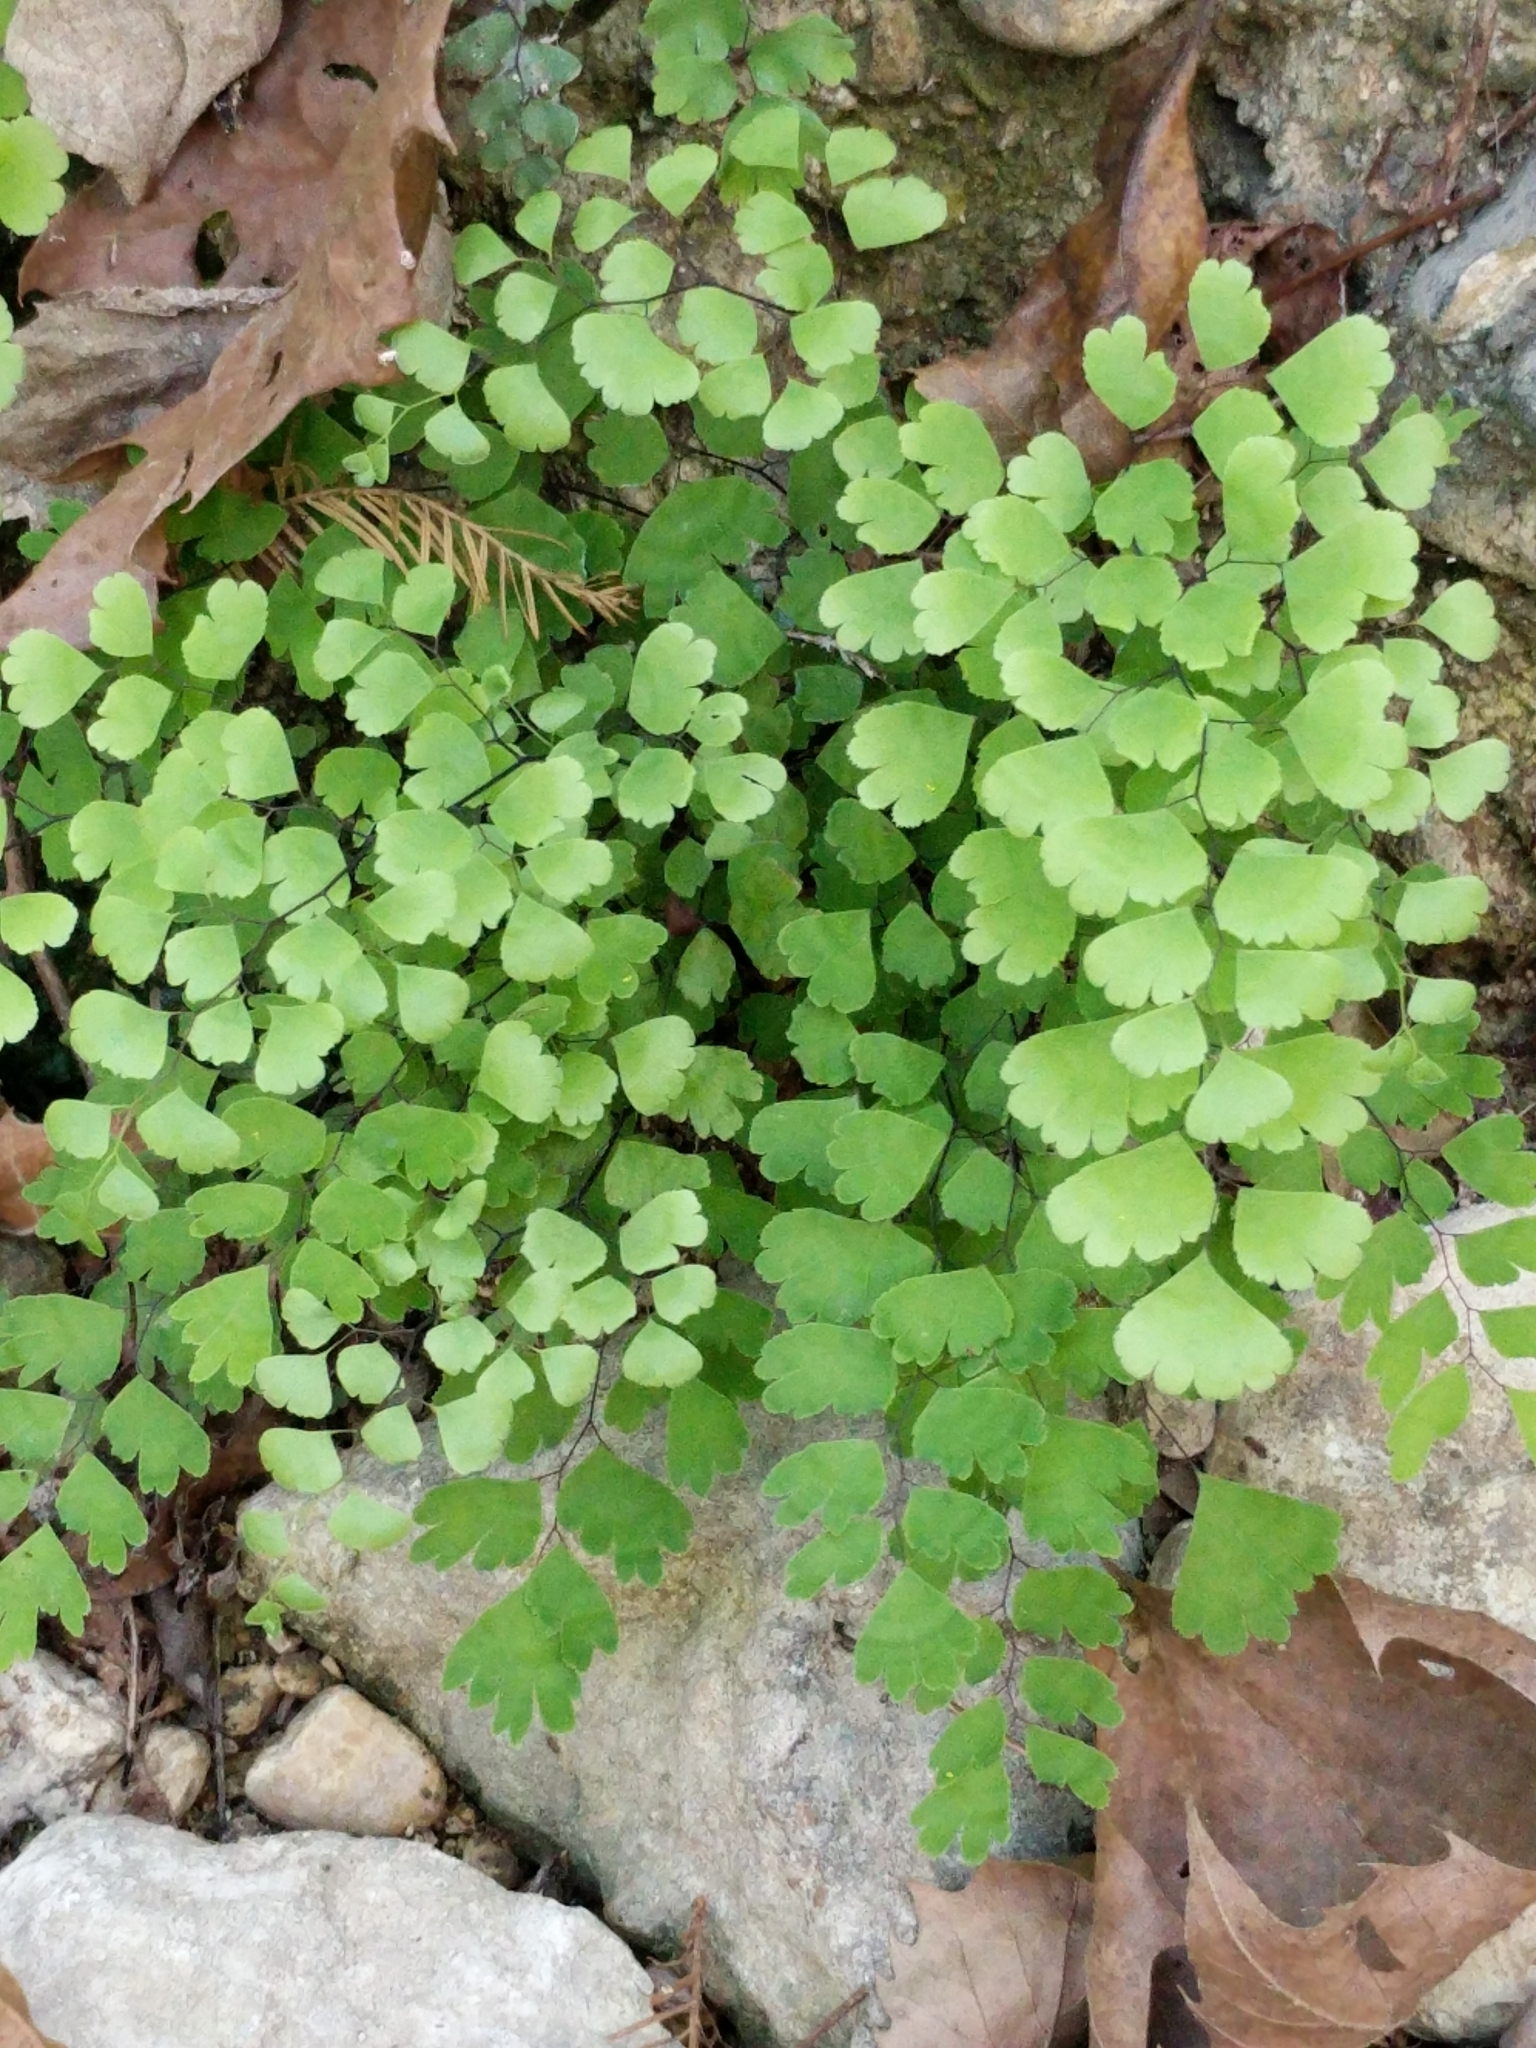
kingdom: Plantae
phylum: Tracheophyta
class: Polypodiopsida
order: Polypodiales
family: Pteridaceae
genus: Adiantum
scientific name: Adiantum capillus-veneris
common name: Maidenhair fern
